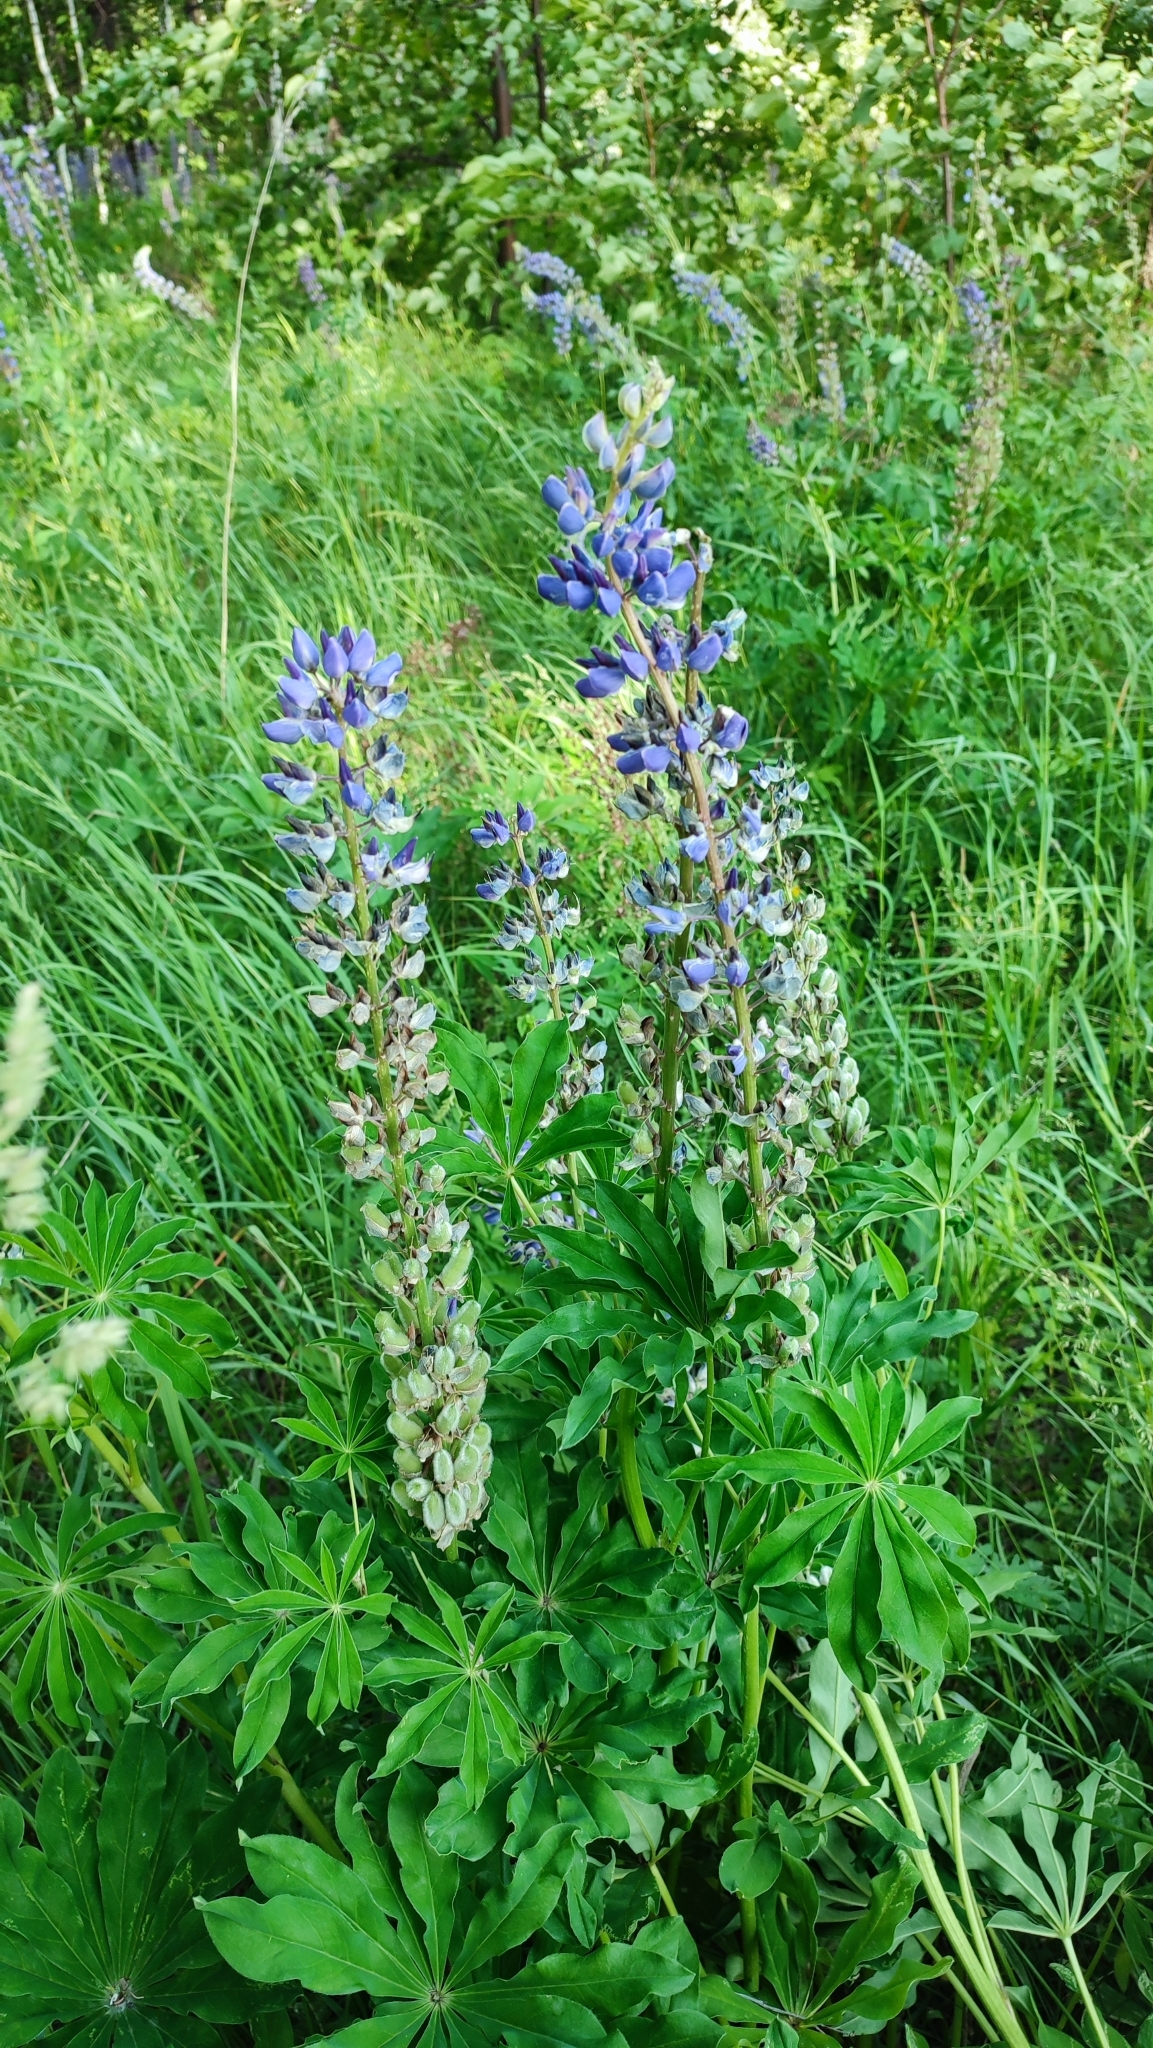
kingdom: Plantae
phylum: Tracheophyta
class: Magnoliopsida
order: Fabales
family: Fabaceae
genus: Lupinus
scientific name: Lupinus polyphyllus
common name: Garden lupin
